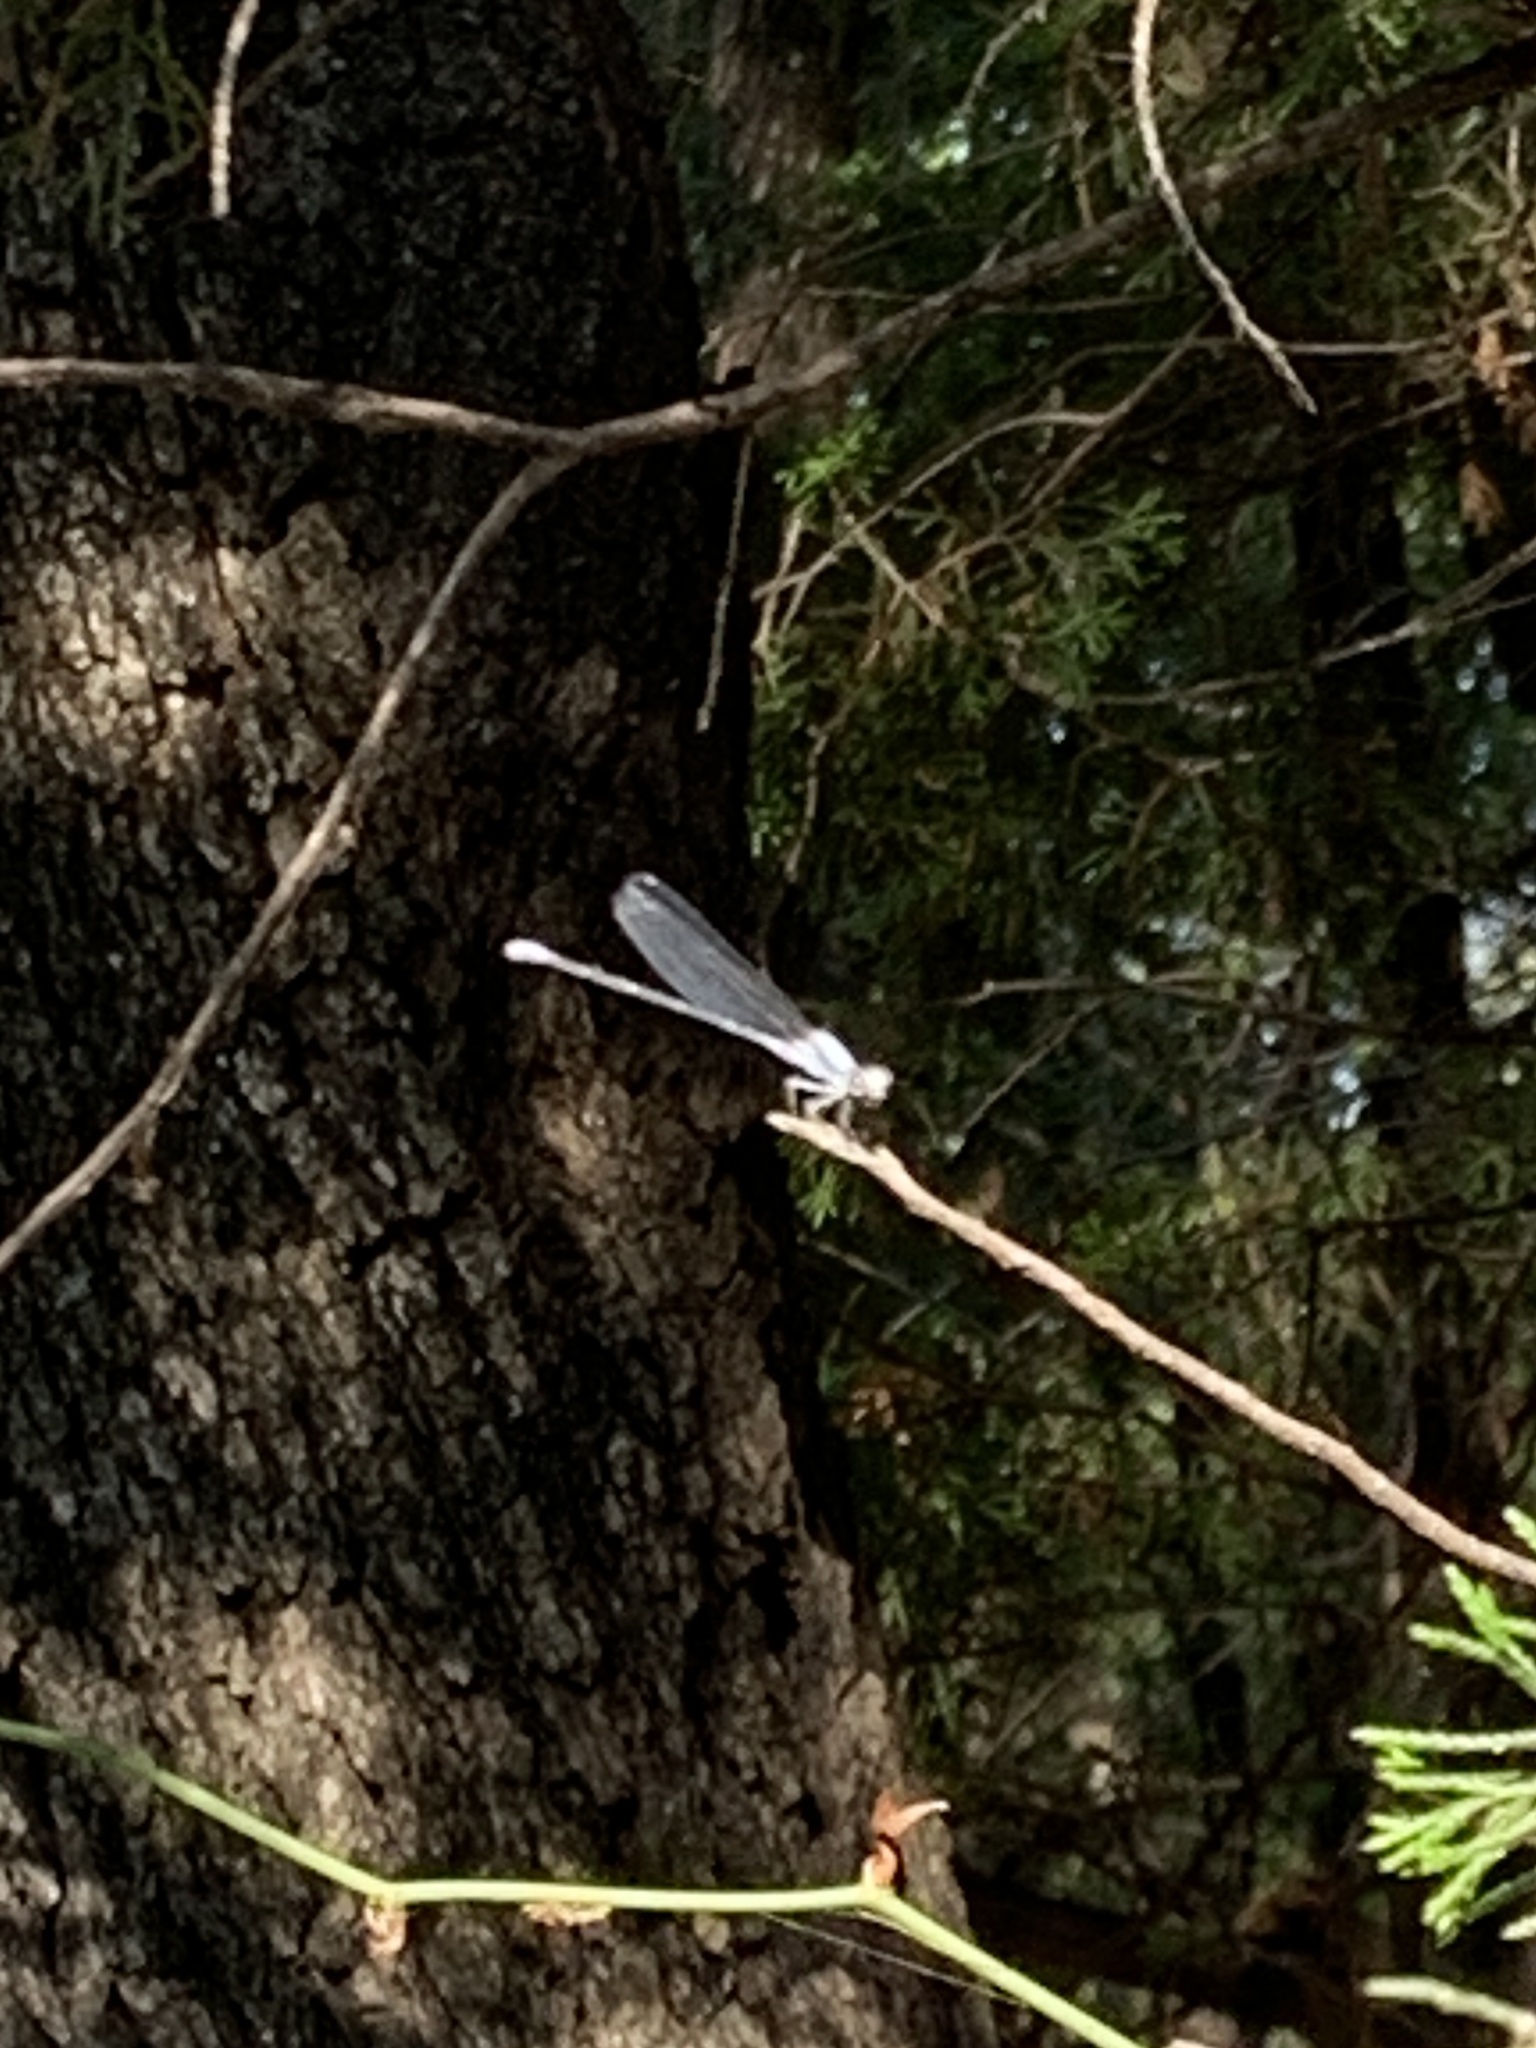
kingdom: Animalia
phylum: Arthropoda
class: Insecta
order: Odonata
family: Coenagrionidae
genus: Argia
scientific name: Argia moesta
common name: Powdered dancer
